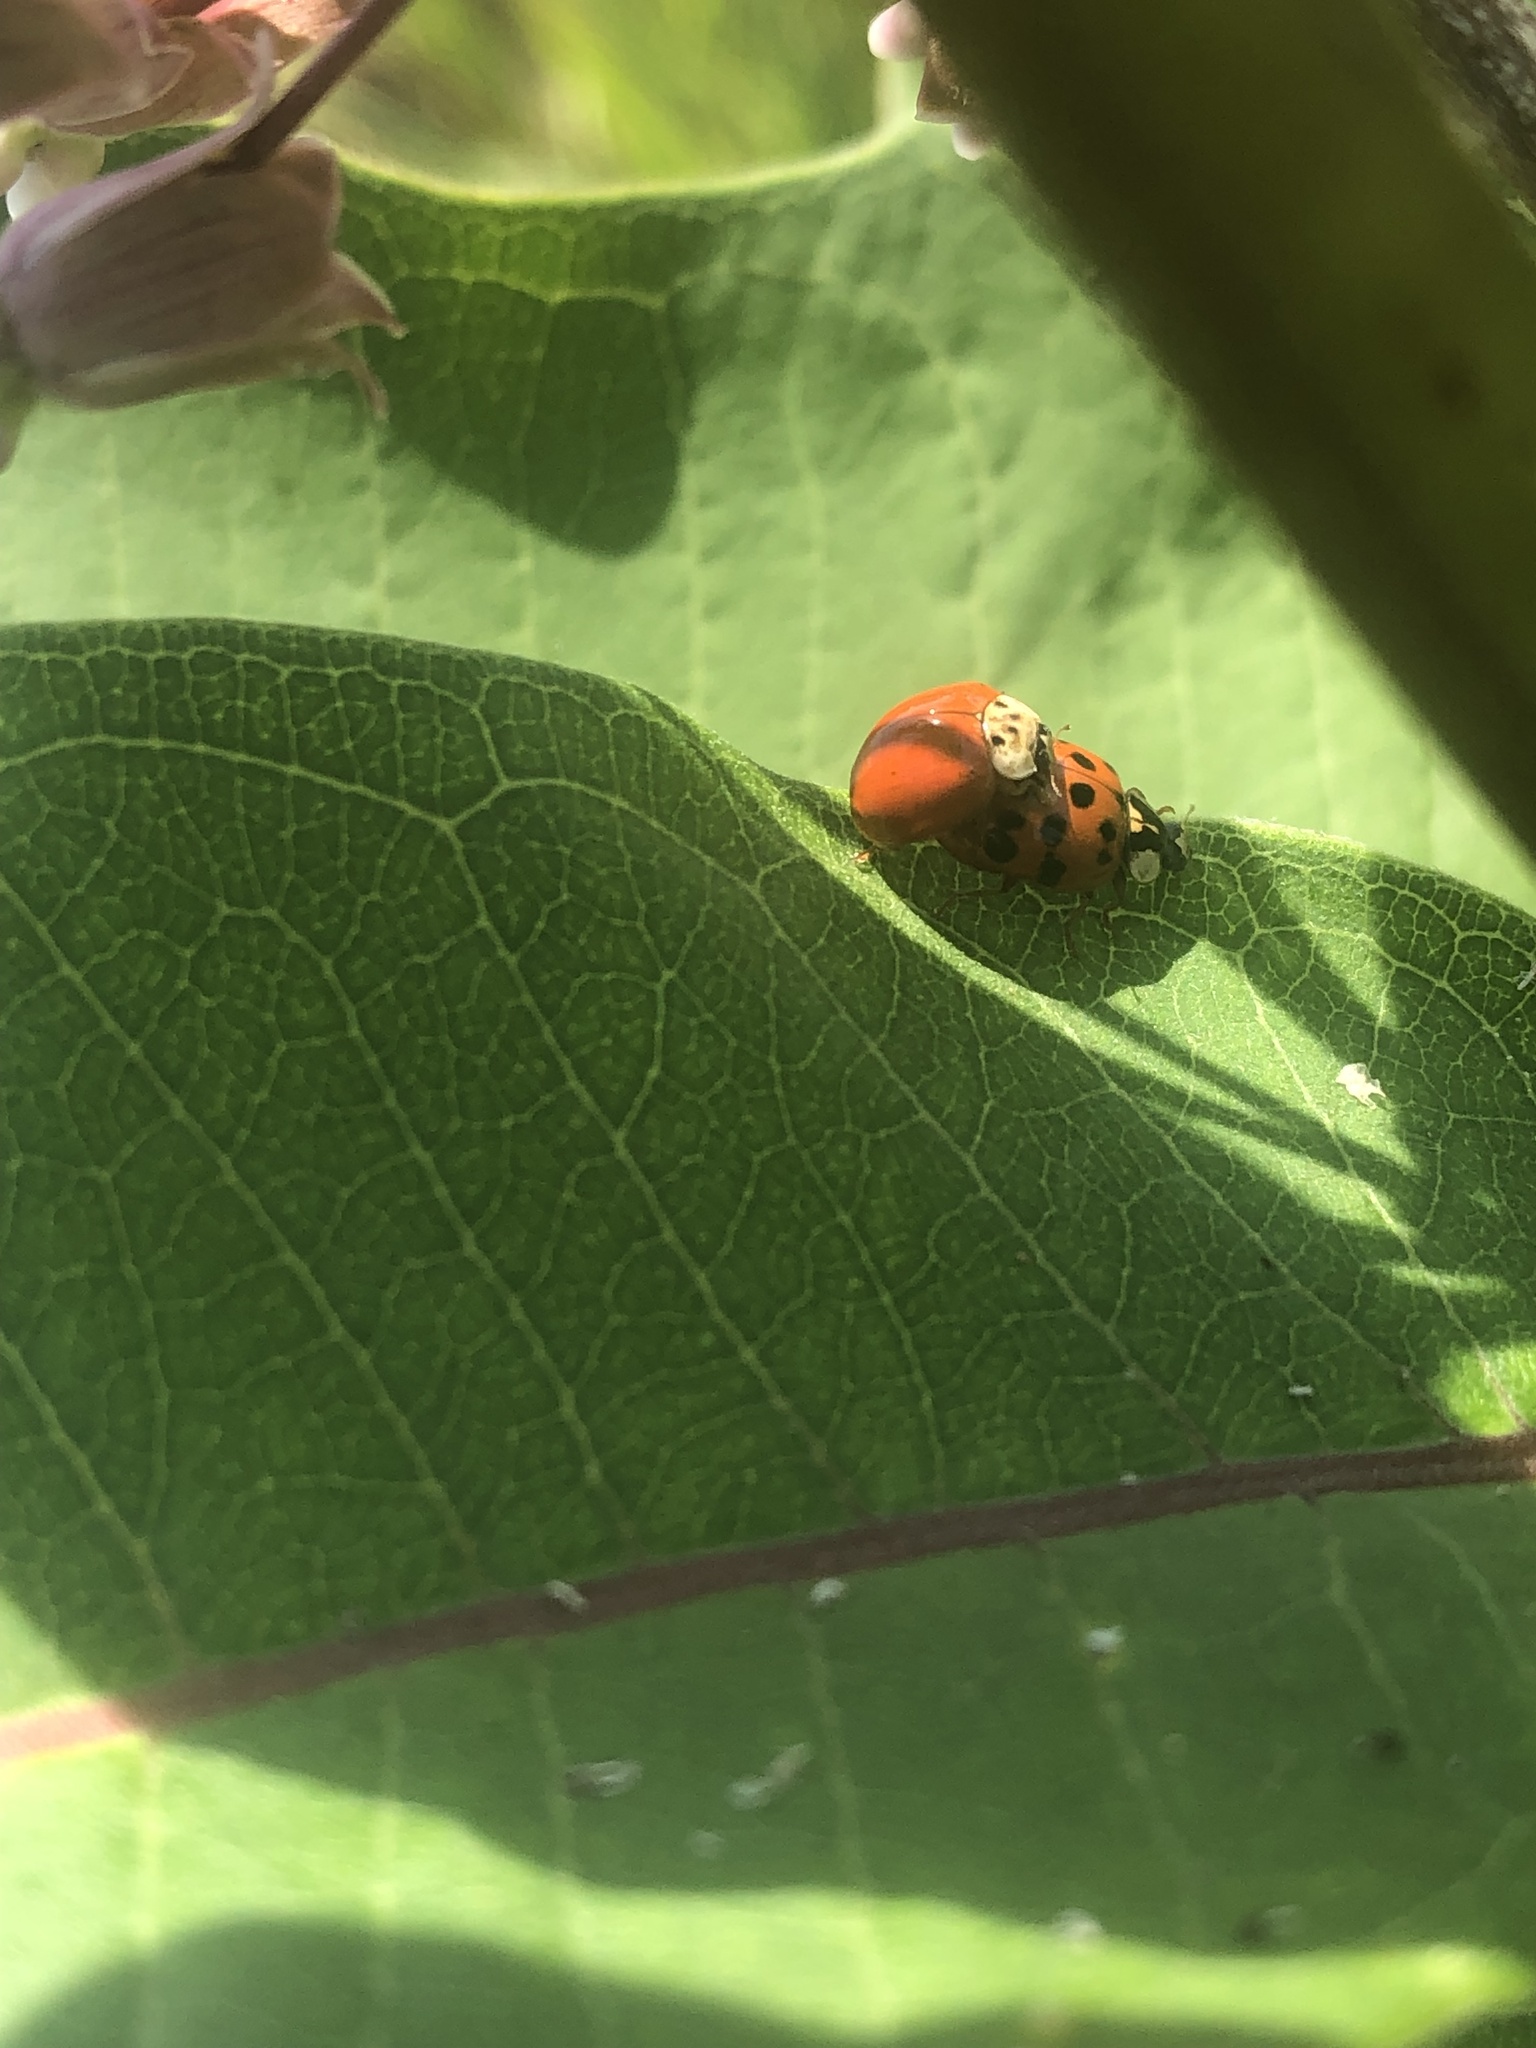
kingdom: Animalia
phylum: Arthropoda
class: Insecta
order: Coleoptera
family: Coccinellidae
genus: Harmonia
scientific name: Harmonia axyridis
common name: Harlequin ladybird
